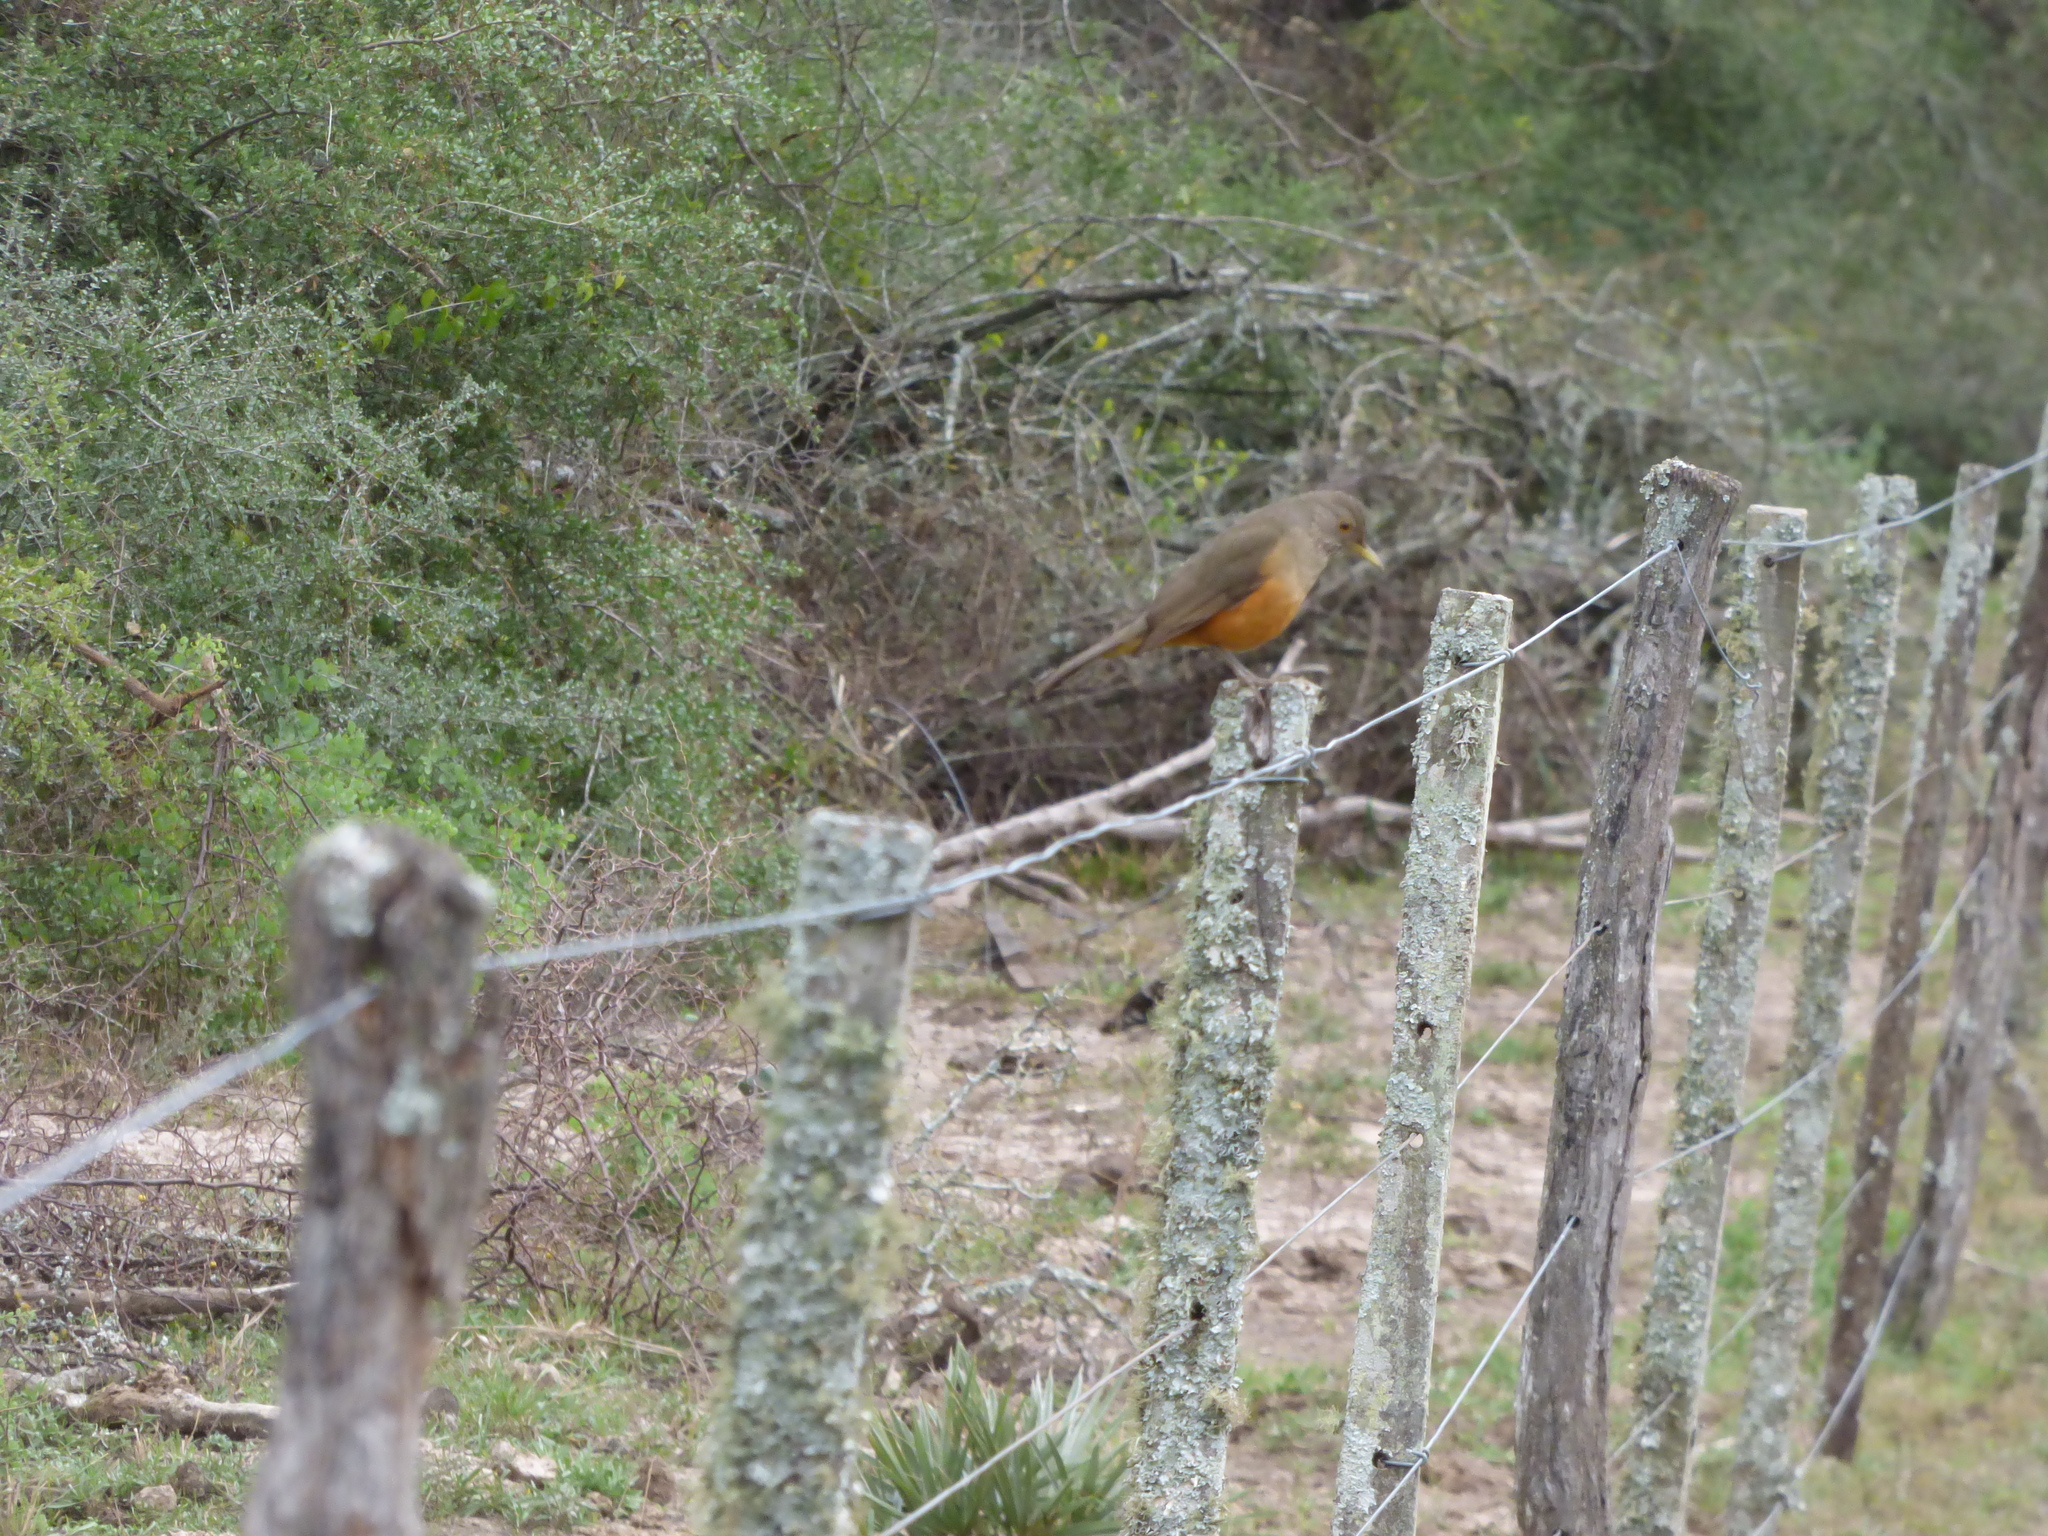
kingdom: Animalia
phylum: Chordata
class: Aves
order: Passeriformes
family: Turdidae
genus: Turdus
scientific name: Turdus rufiventris
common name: Rufous-bellied thrush
